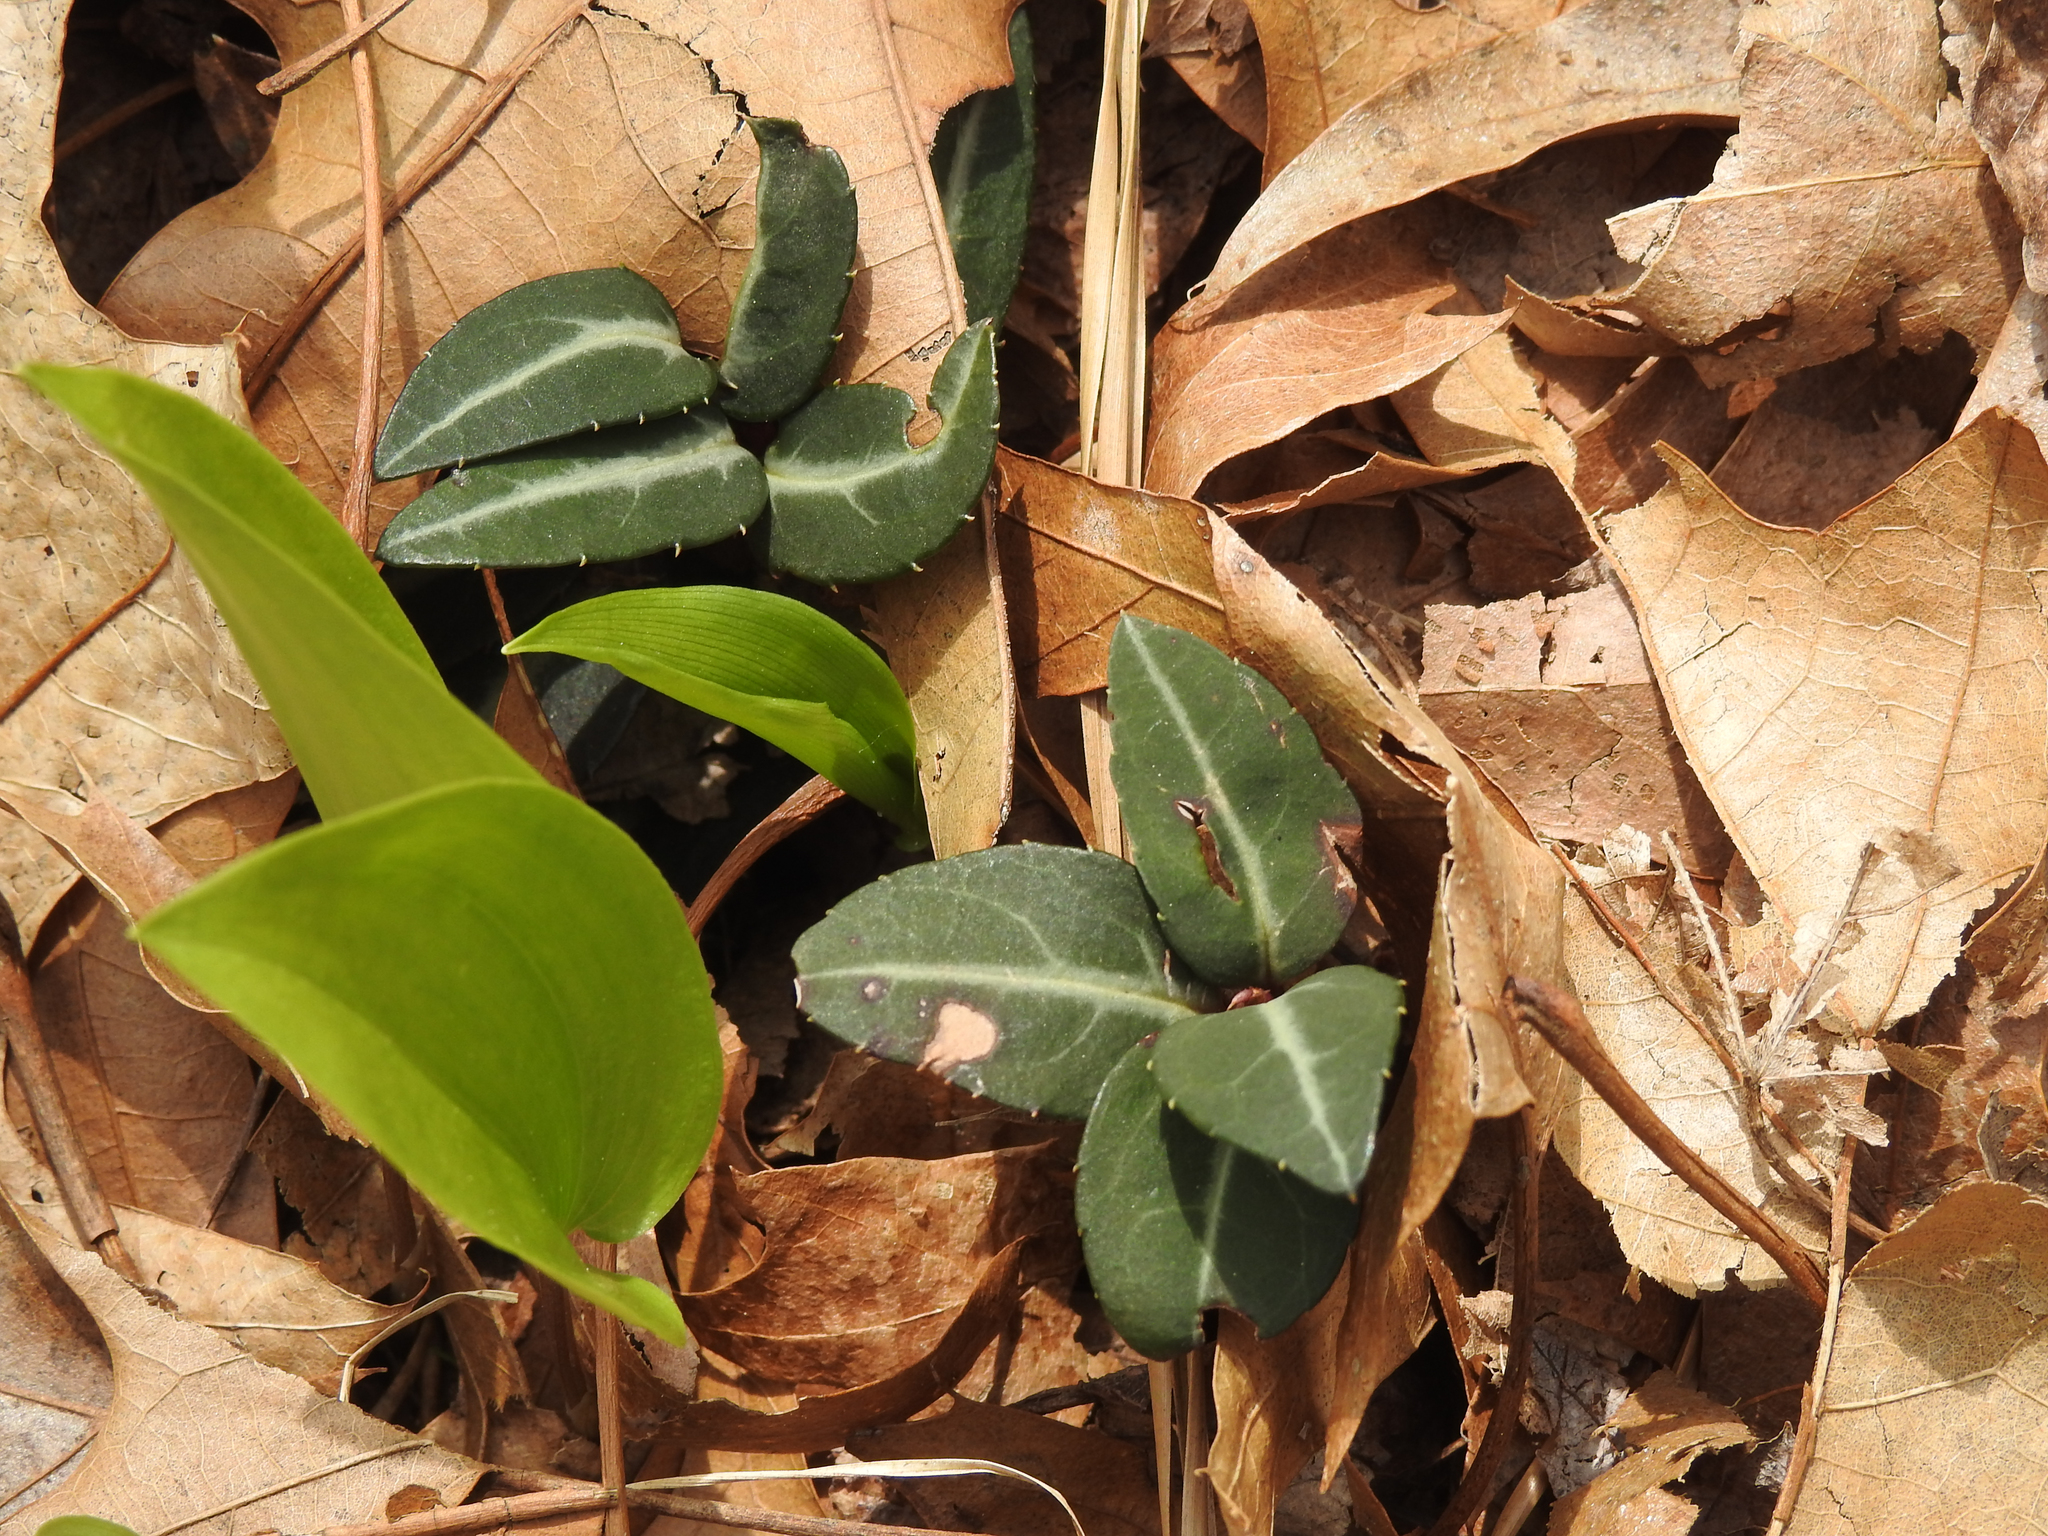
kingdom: Plantae
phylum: Tracheophyta
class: Magnoliopsida
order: Ericales
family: Ericaceae
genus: Chimaphila
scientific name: Chimaphila maculata
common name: Spotted pipsissewa
